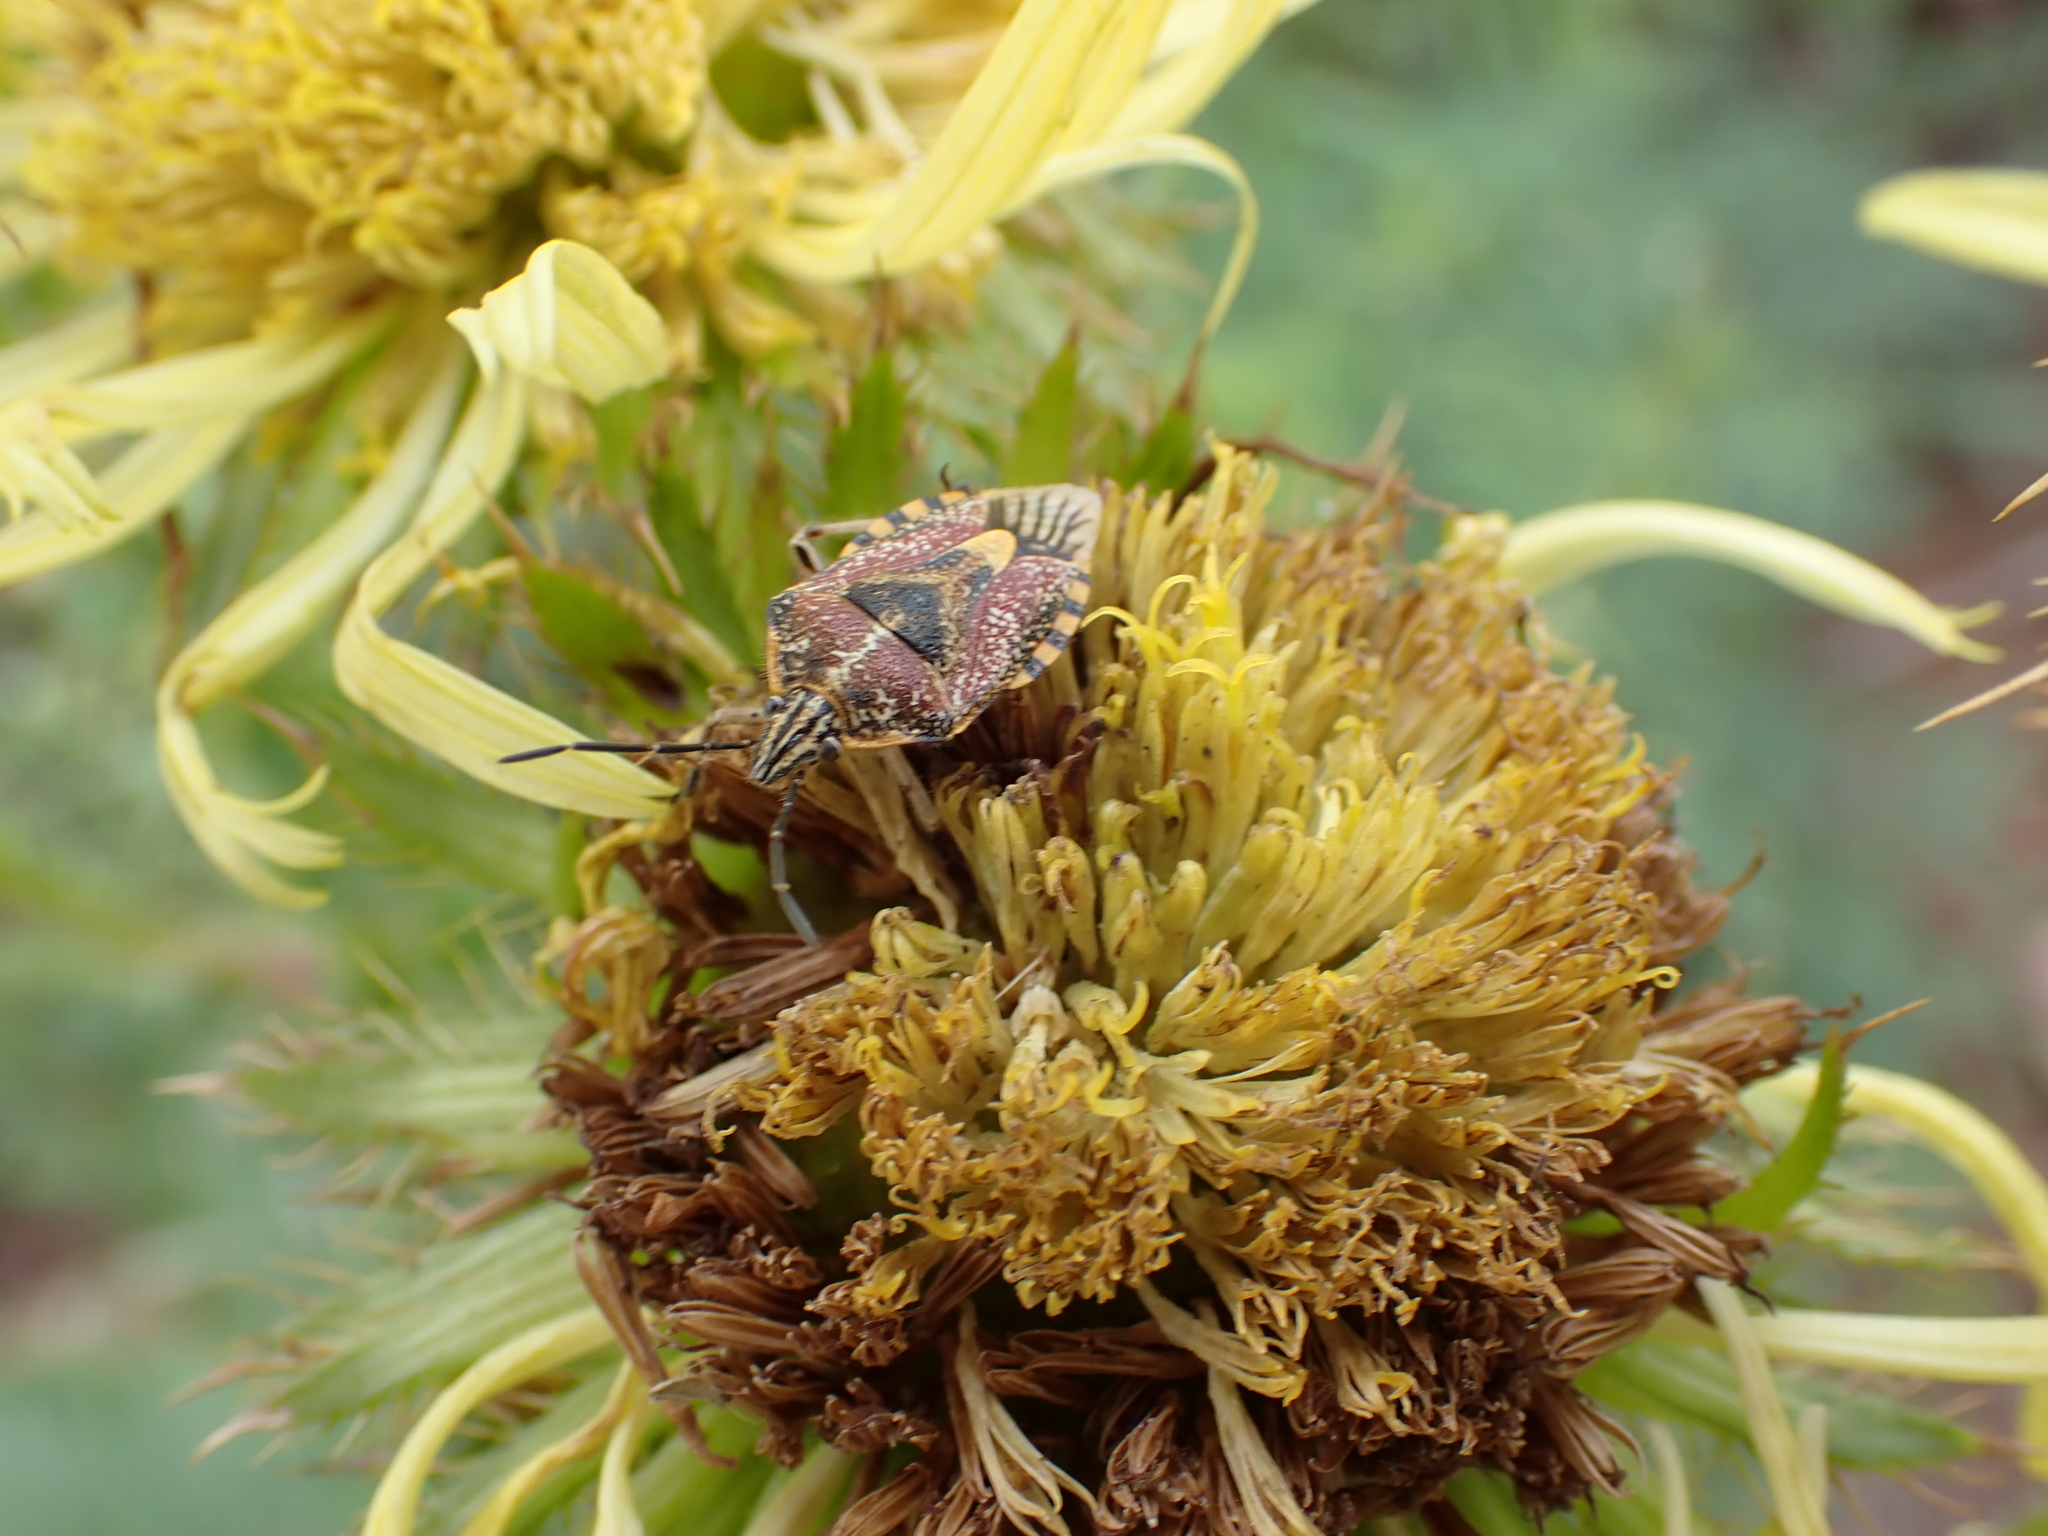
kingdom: Animalia
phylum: Arthropoda
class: Insecta
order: Hemiptera
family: Pentatomidae
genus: Agonoscelis
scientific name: Agonoscelis versicoloratus
